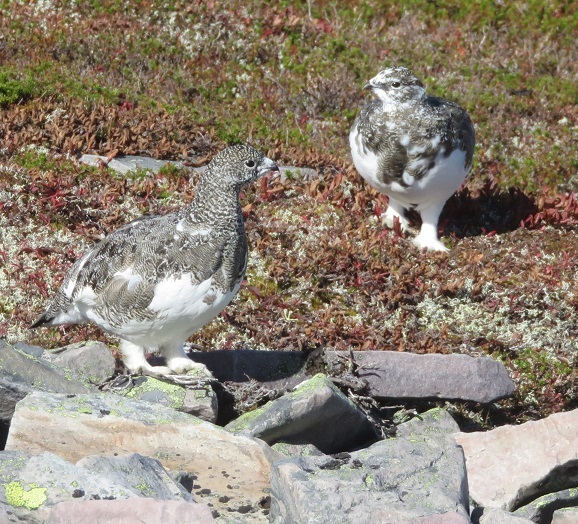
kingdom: Animalia
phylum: Chordata
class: Aves
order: Galliformes
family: Phasianidae
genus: Lagopus
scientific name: Lagopus muta
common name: Rock ptarmigan
